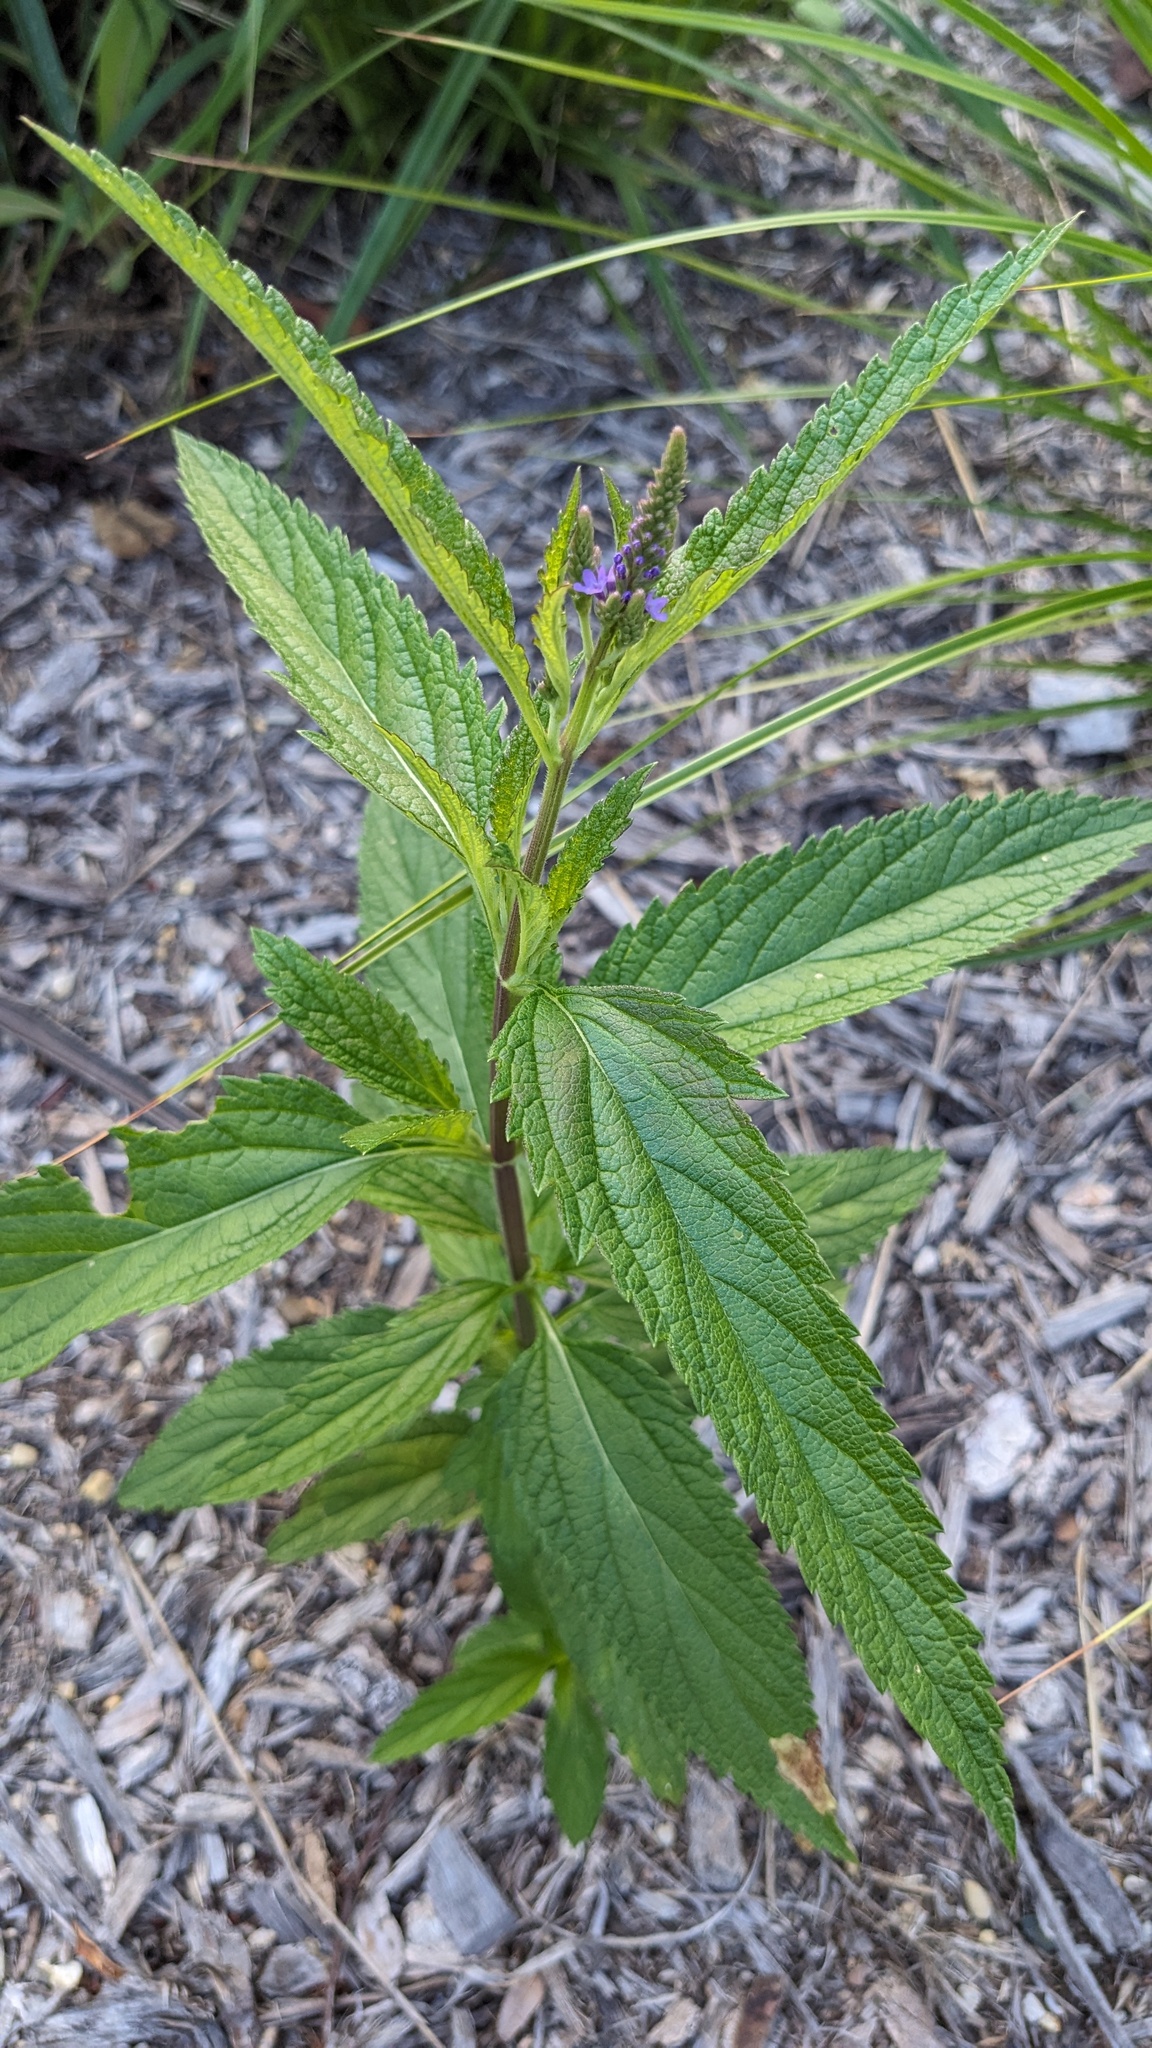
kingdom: Animalia
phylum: Arthropoda
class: Insecta
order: Diptera
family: Agromyzidae
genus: Calycomyza
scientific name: Calycomyza verbenae
